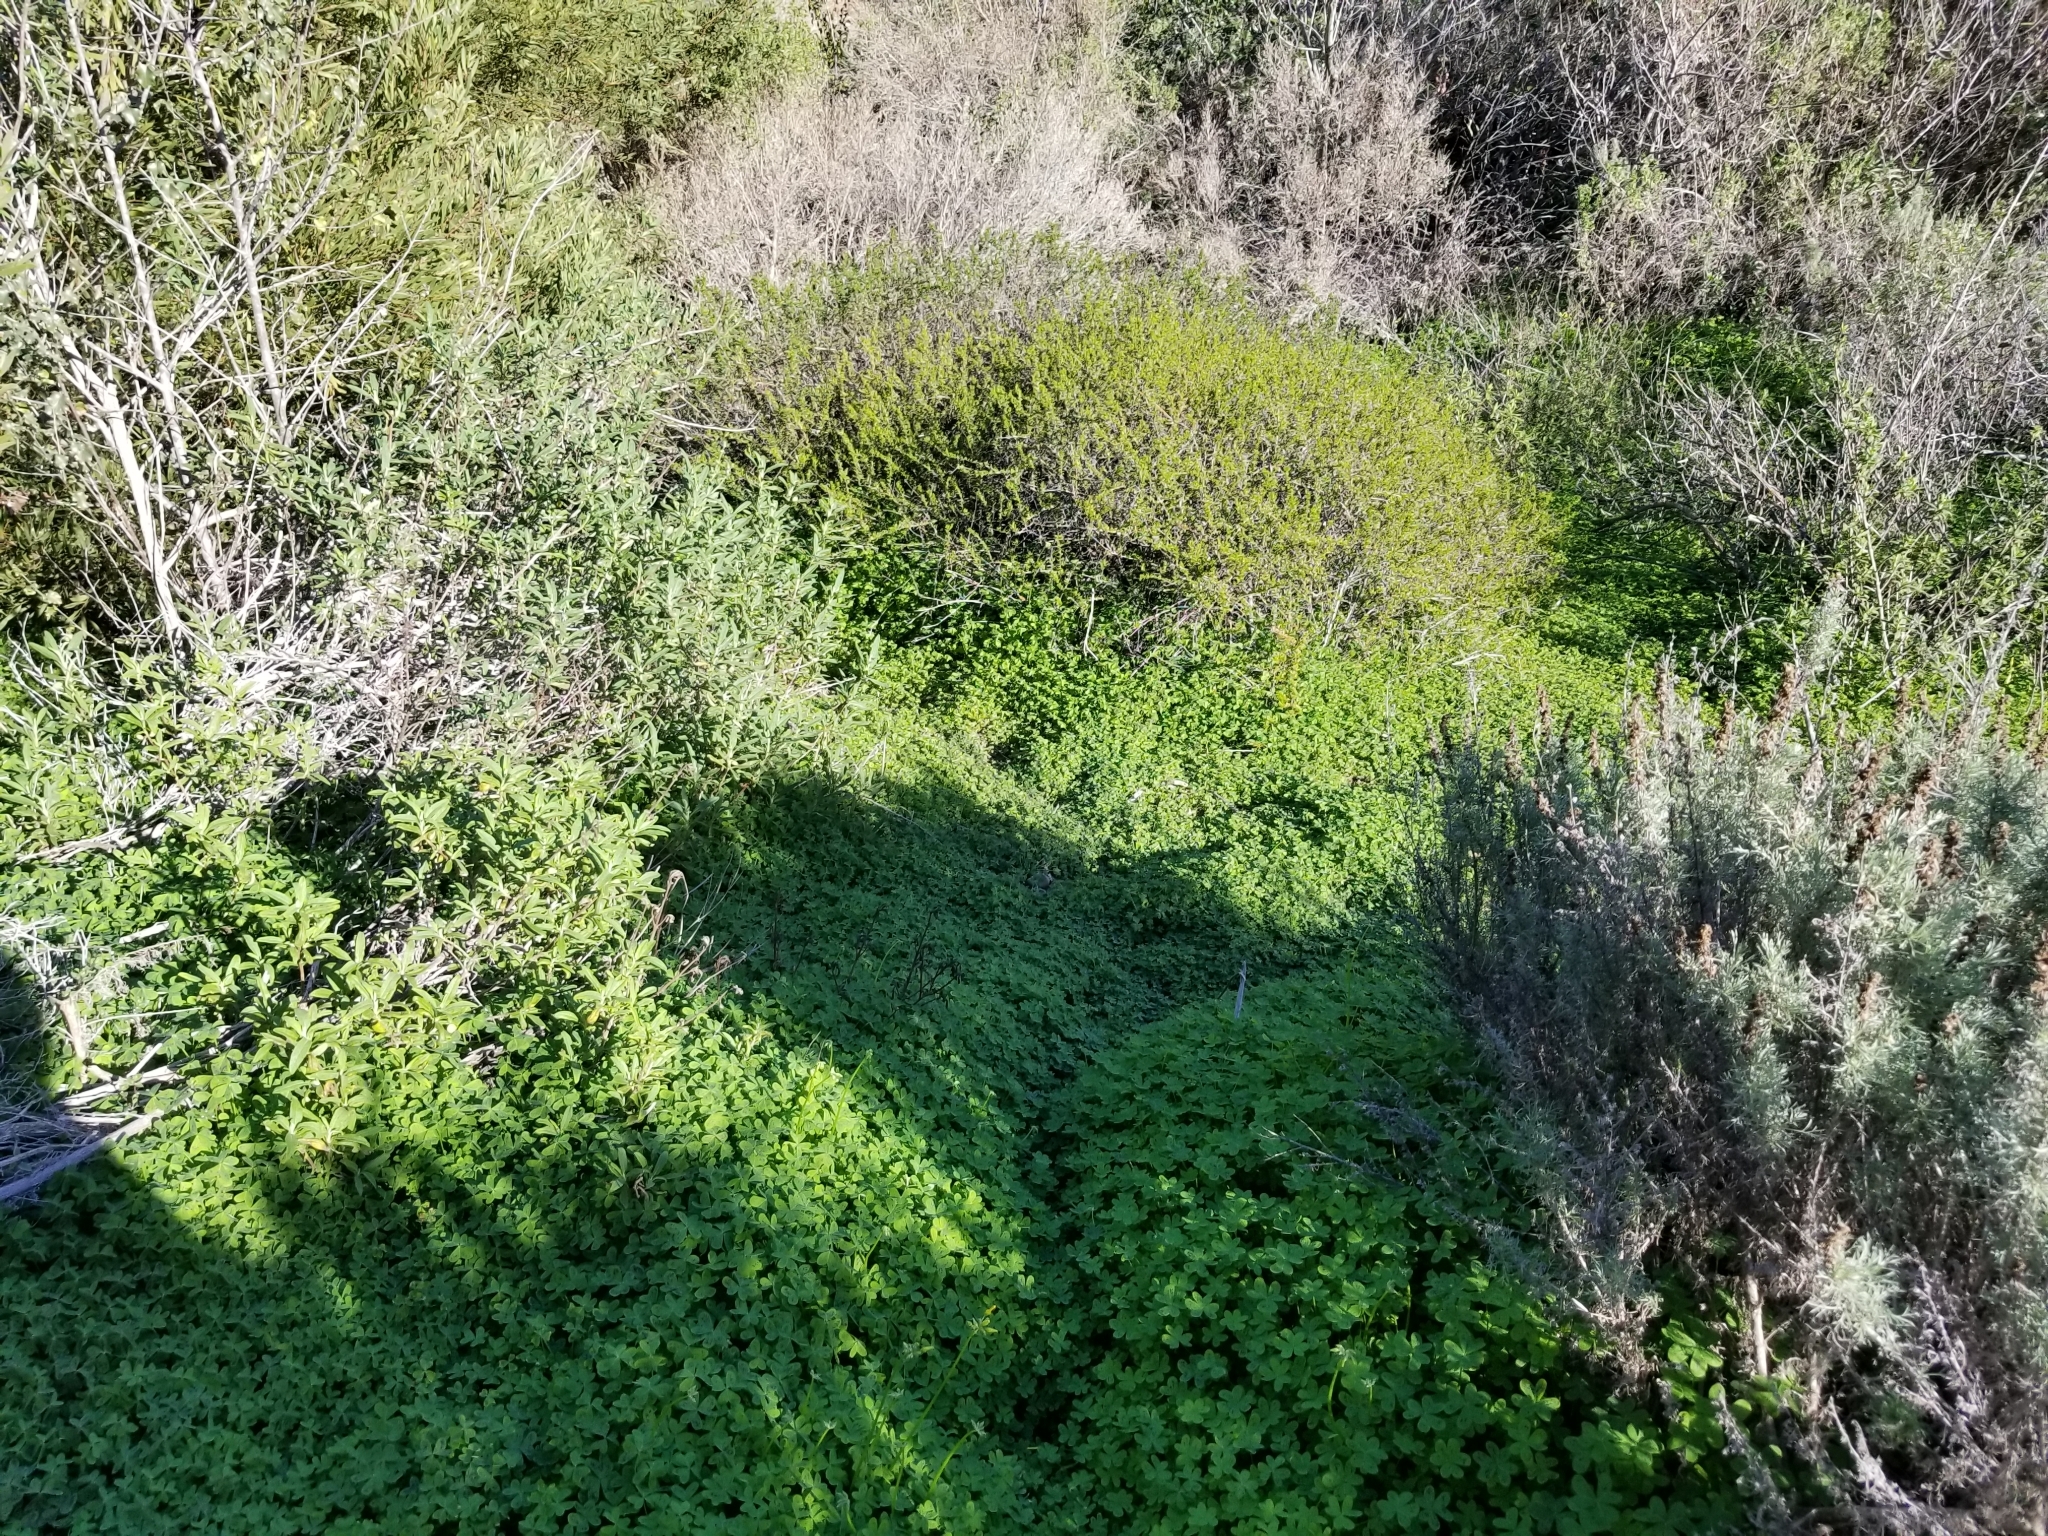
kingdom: Plantae
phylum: Tracheophyta
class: Magnoliopsida
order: Oxalidales
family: Oxalidaceae
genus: Oxalis
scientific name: Oxalis pes-caprae
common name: Bermuda-buttercup
